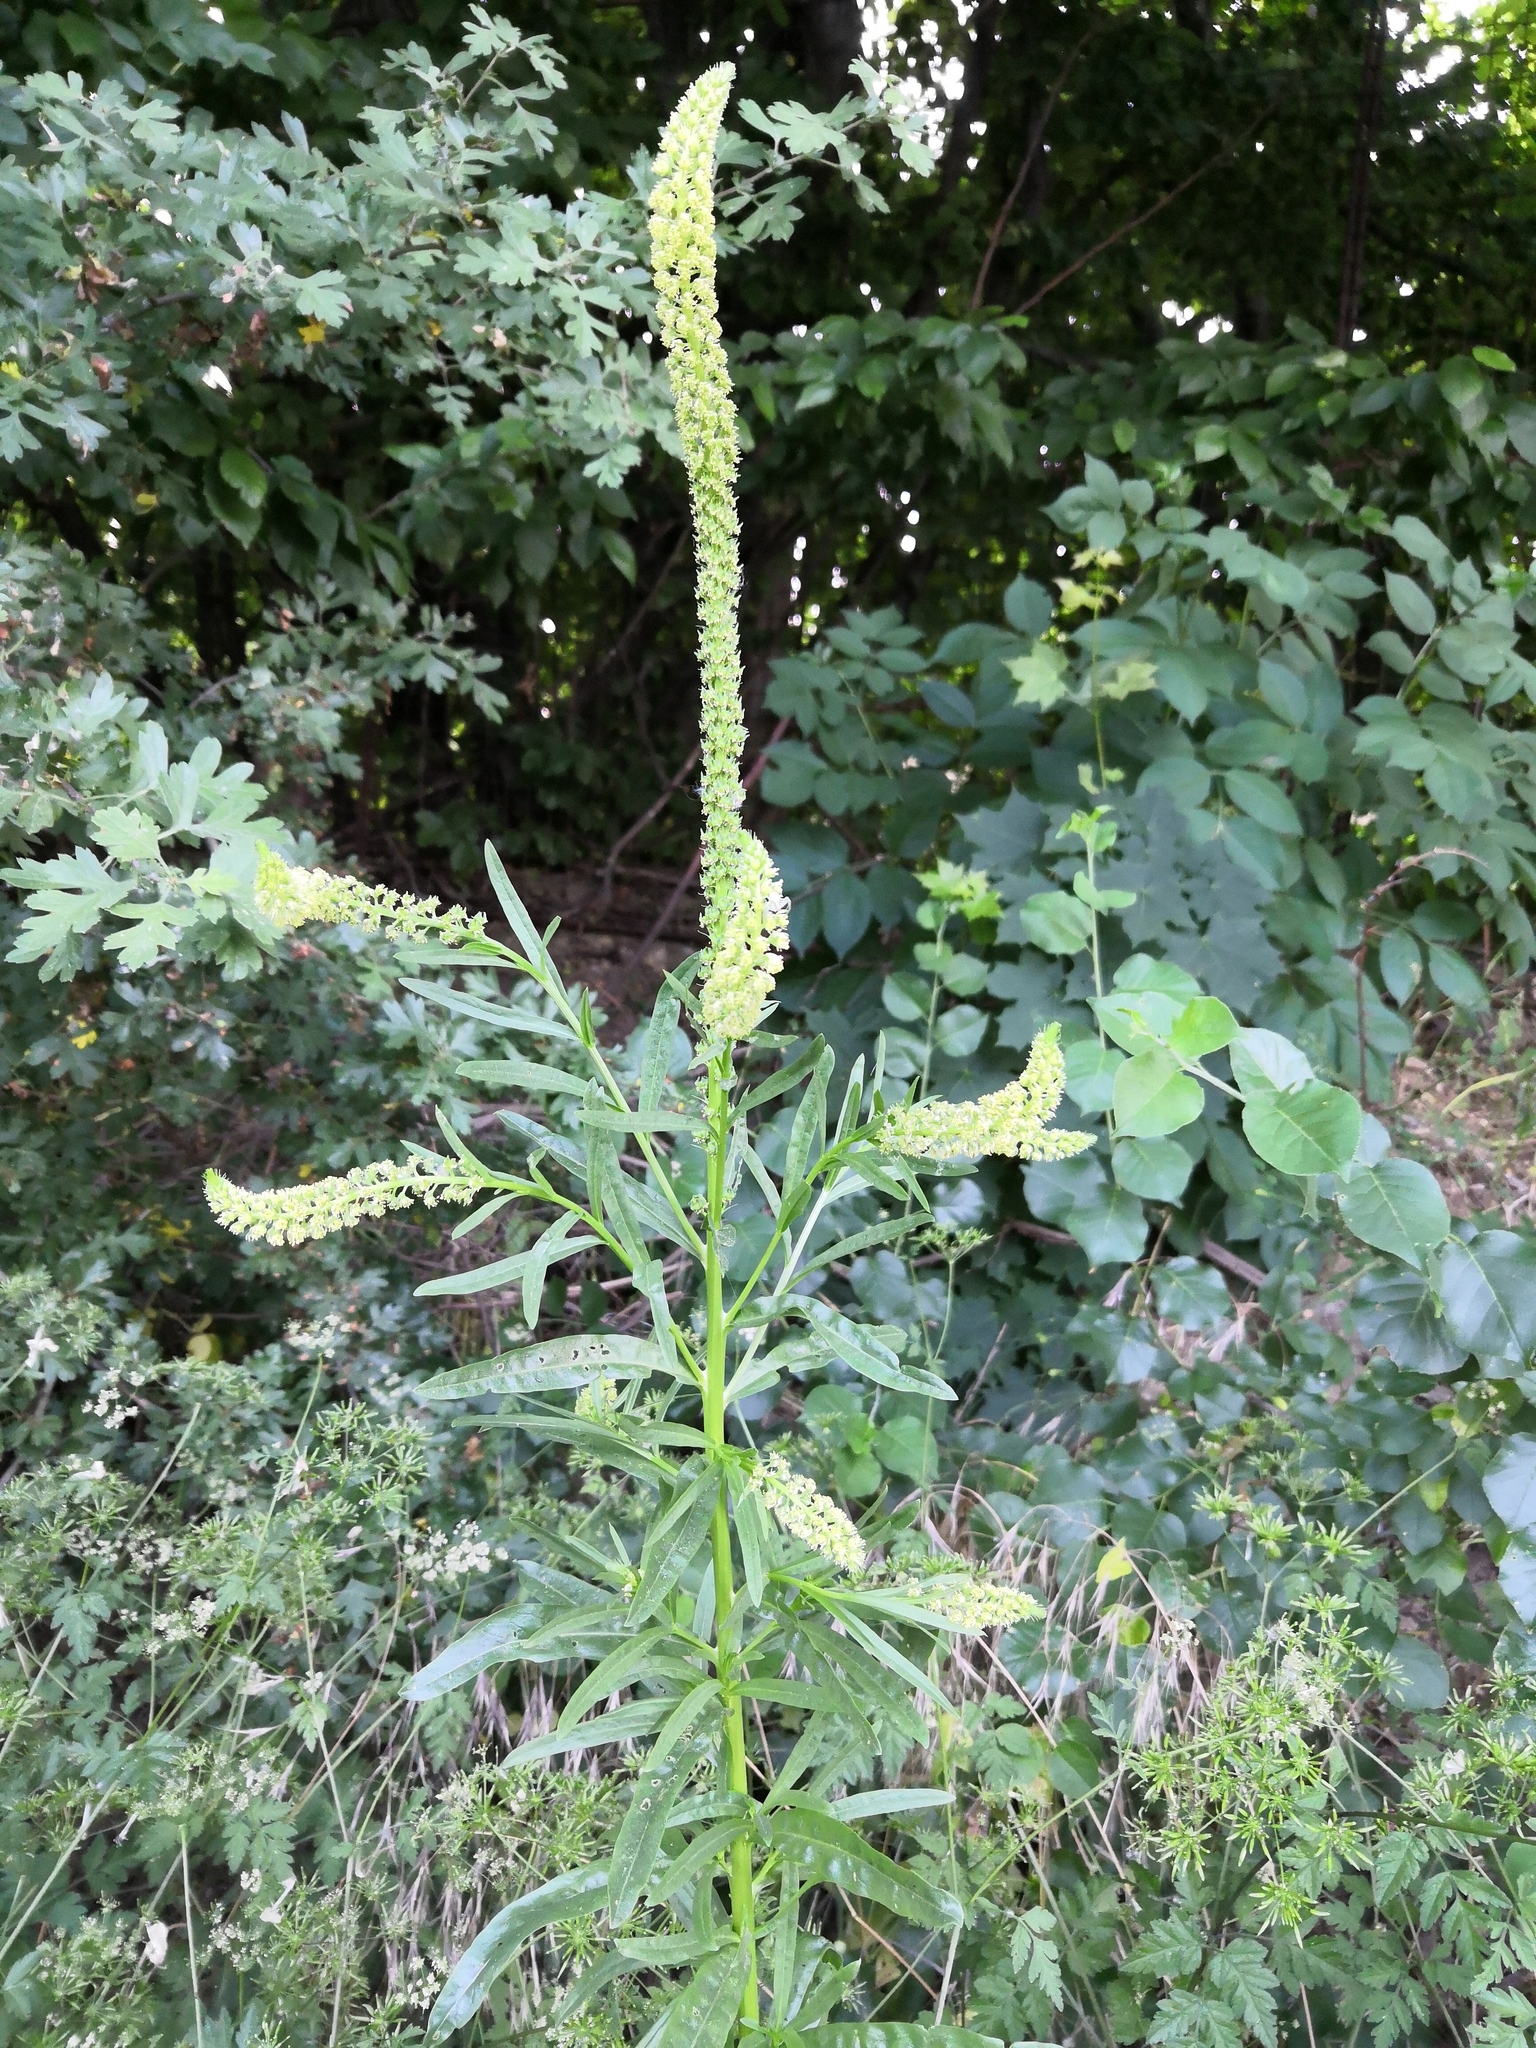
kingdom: Plantae
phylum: Tracheophyta
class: Magnoliopsida
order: Brassicales
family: Resedaceae
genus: Reseda
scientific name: Reseda luteola
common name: Weld
